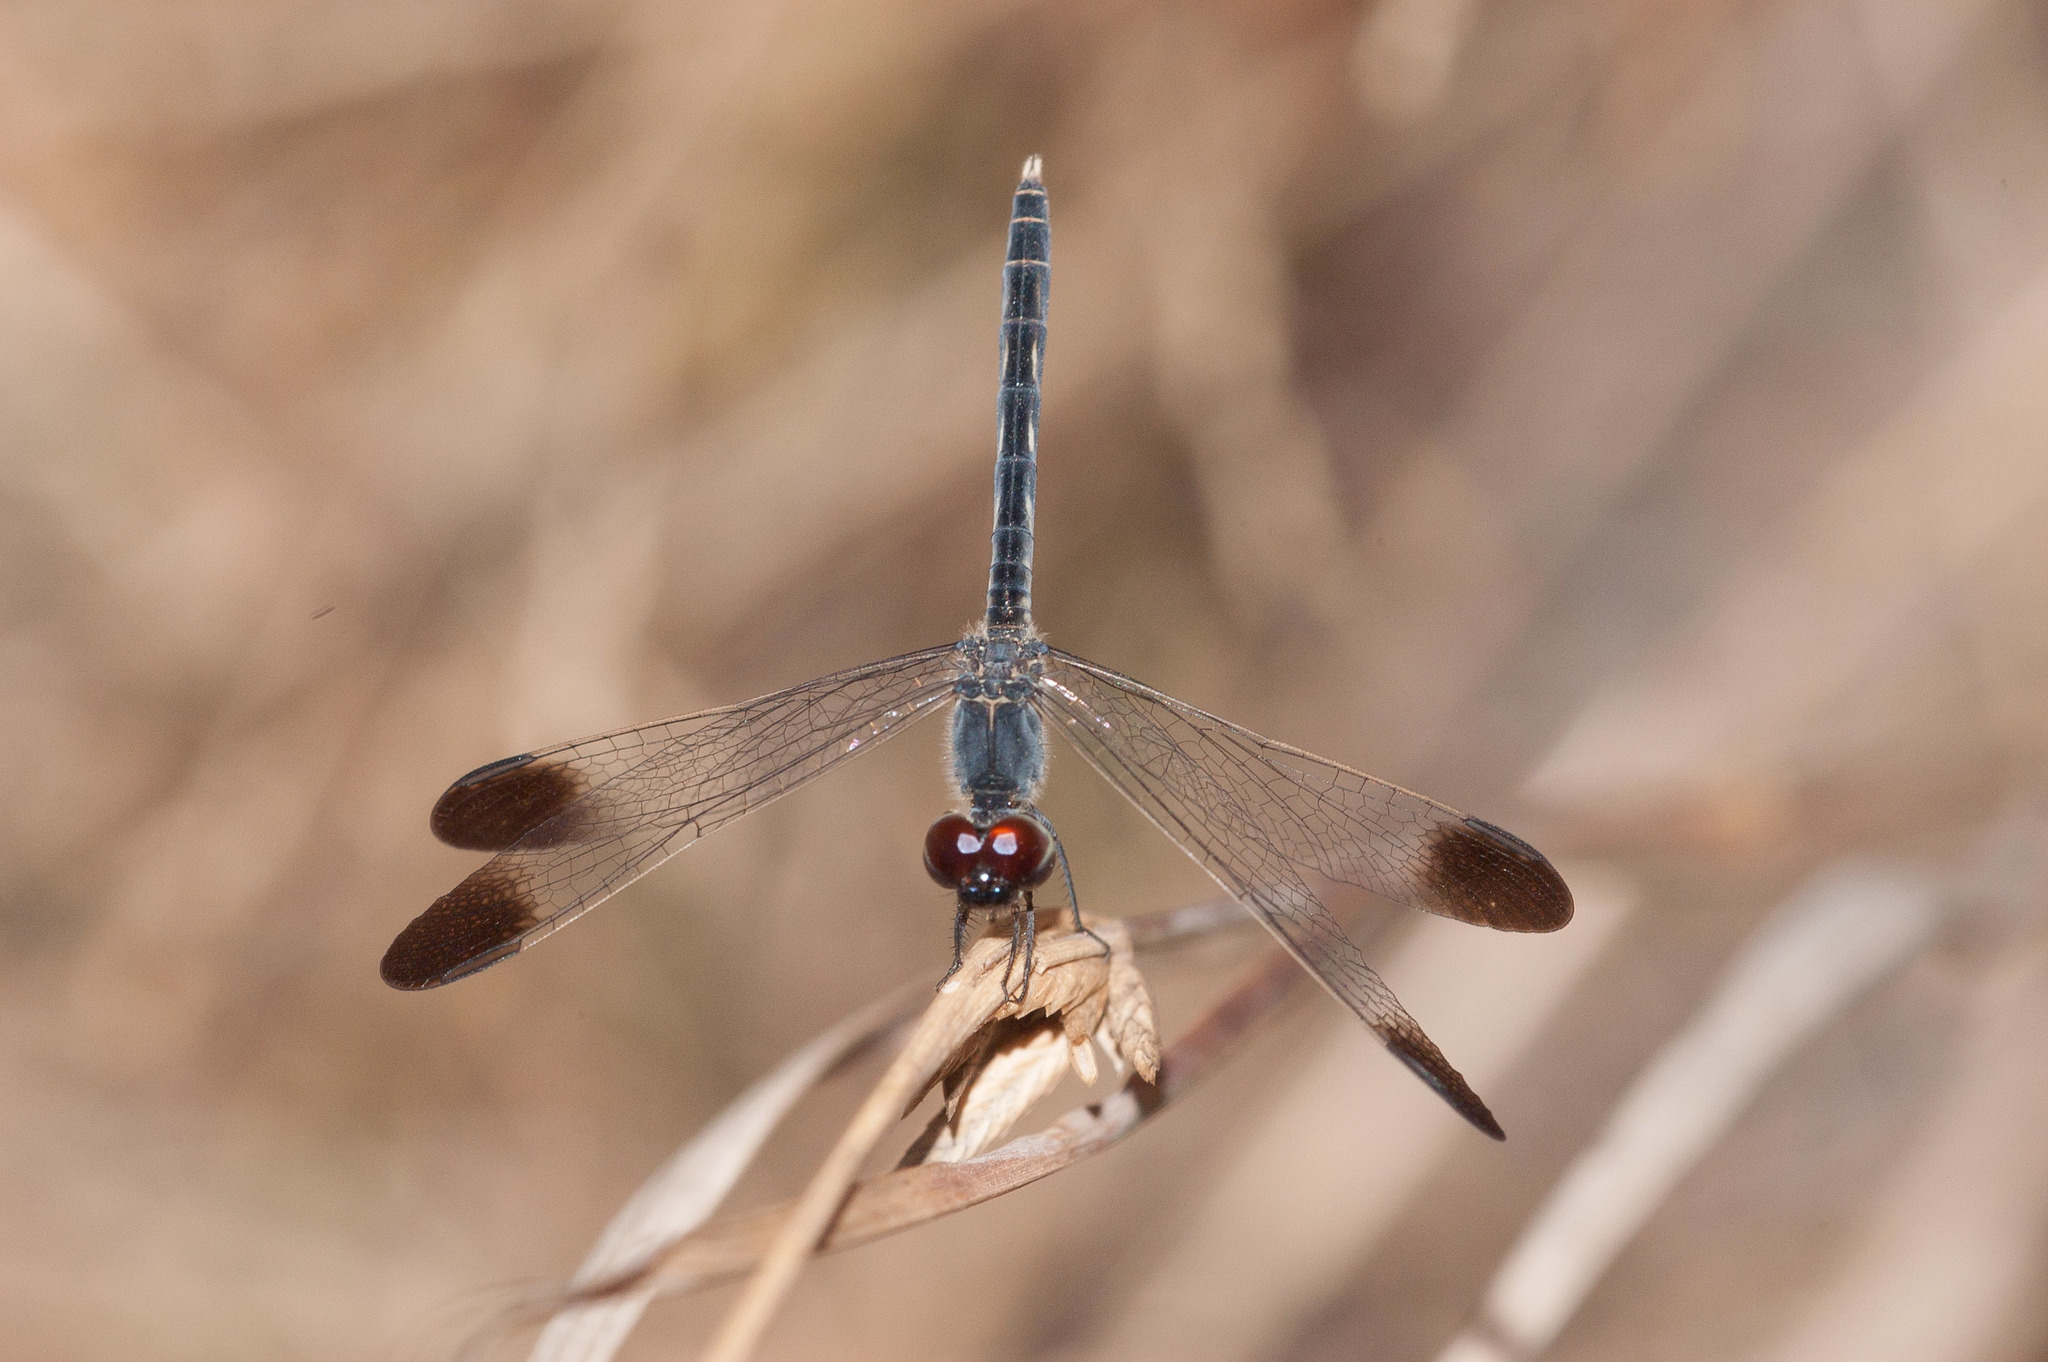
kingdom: Animalia
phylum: Arthropoda
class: Insecta
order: Odonata
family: Libellulidae
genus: Diplacodes
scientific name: Diplacodes nebulosa
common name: Black-tipped percher
